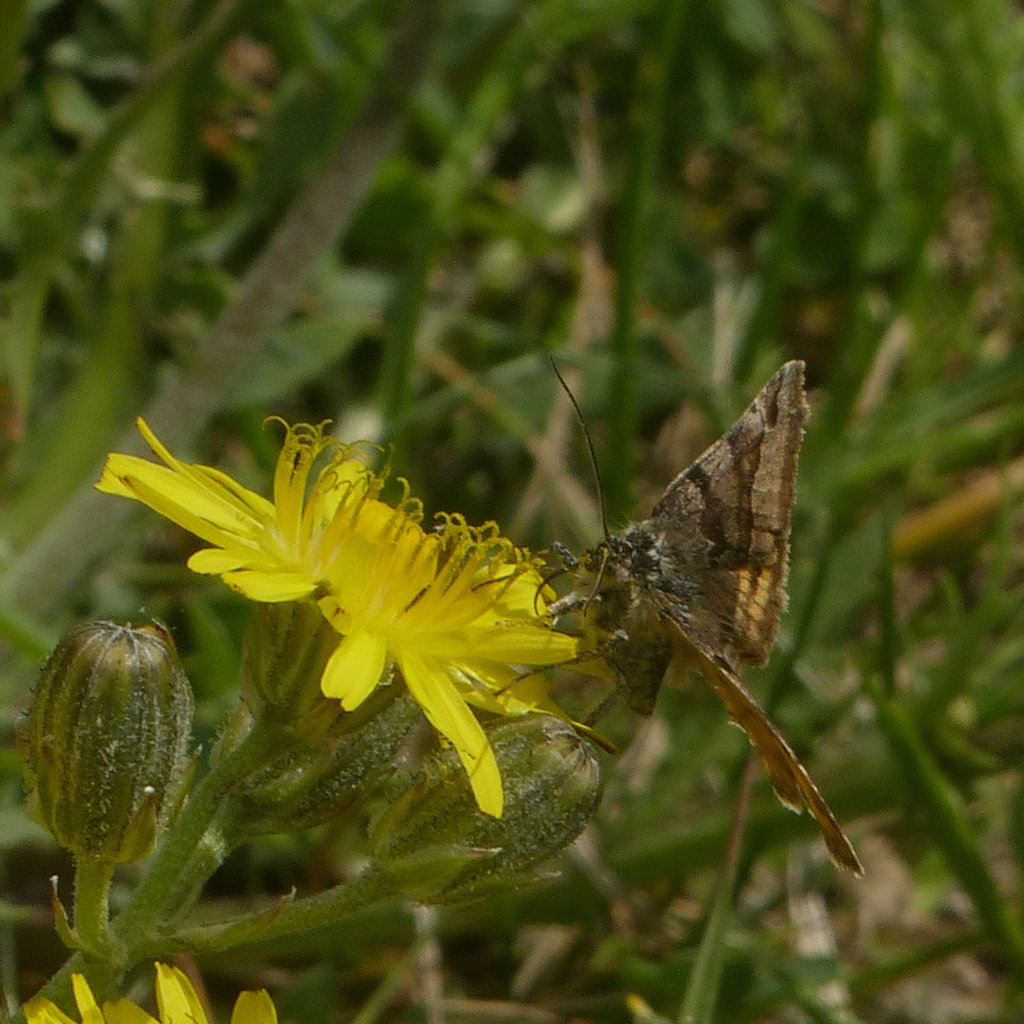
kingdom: Animalia
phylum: Arthropoda
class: Insecta
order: Lepidoptera
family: Erebidae
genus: Euclidia
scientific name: Euclidia glyphica
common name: Burnet companion
